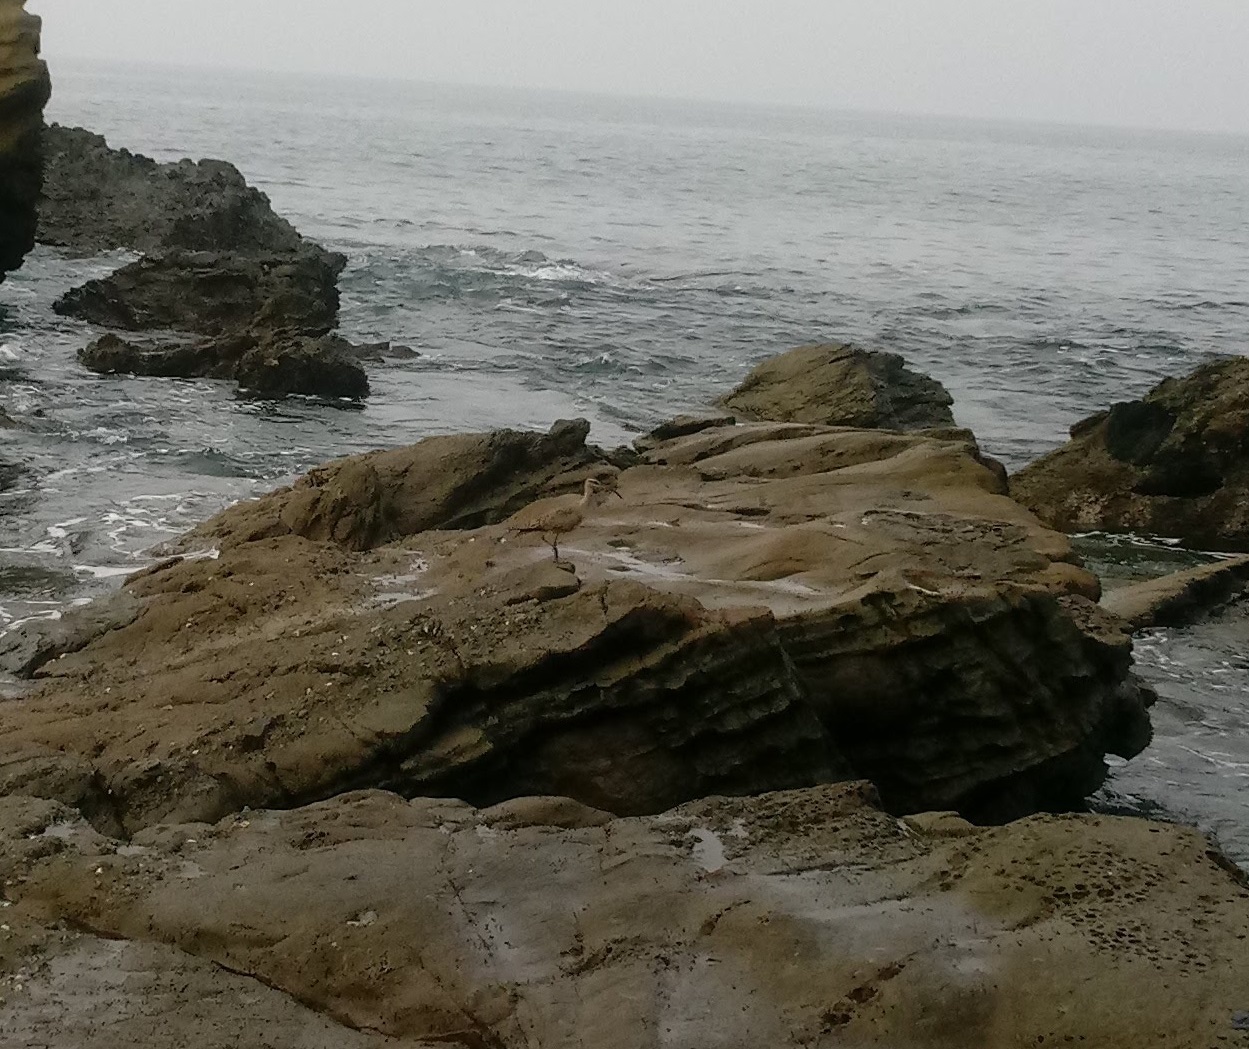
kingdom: Animalia
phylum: Chordata
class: Aves
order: Charadriiformes
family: Scolopacidae
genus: Numenius
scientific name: Numenius phaeopus
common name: Whimbrel
